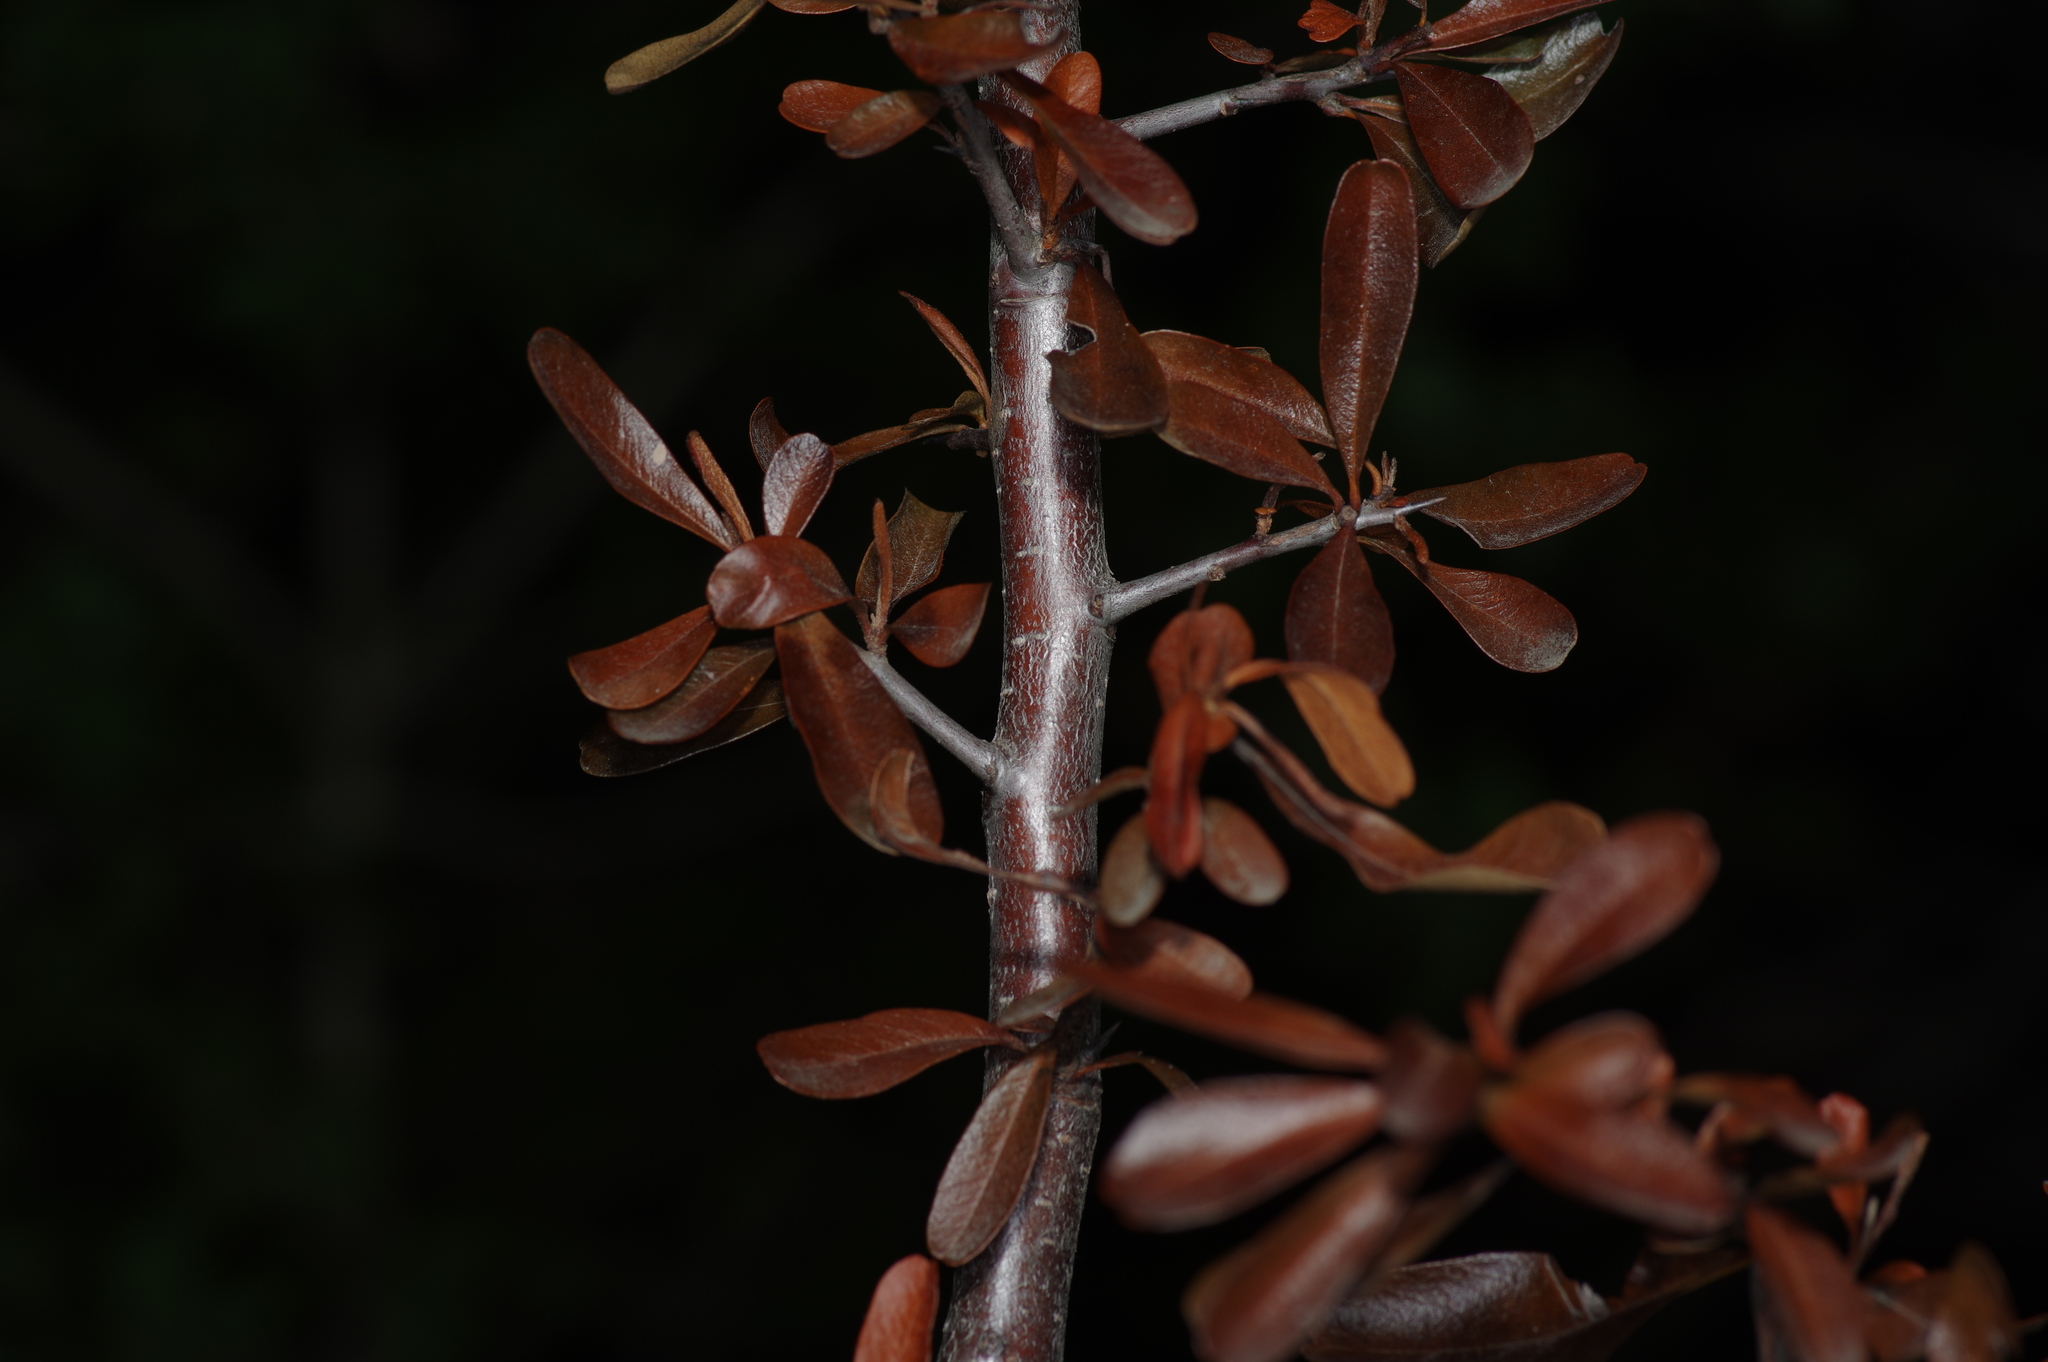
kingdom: Plantae
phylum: Tracheophyta
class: Magnoliopsida
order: Rosales
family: Rosaceae
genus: Pyracantha
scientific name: Pyracantha coccinea
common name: Firethorn
